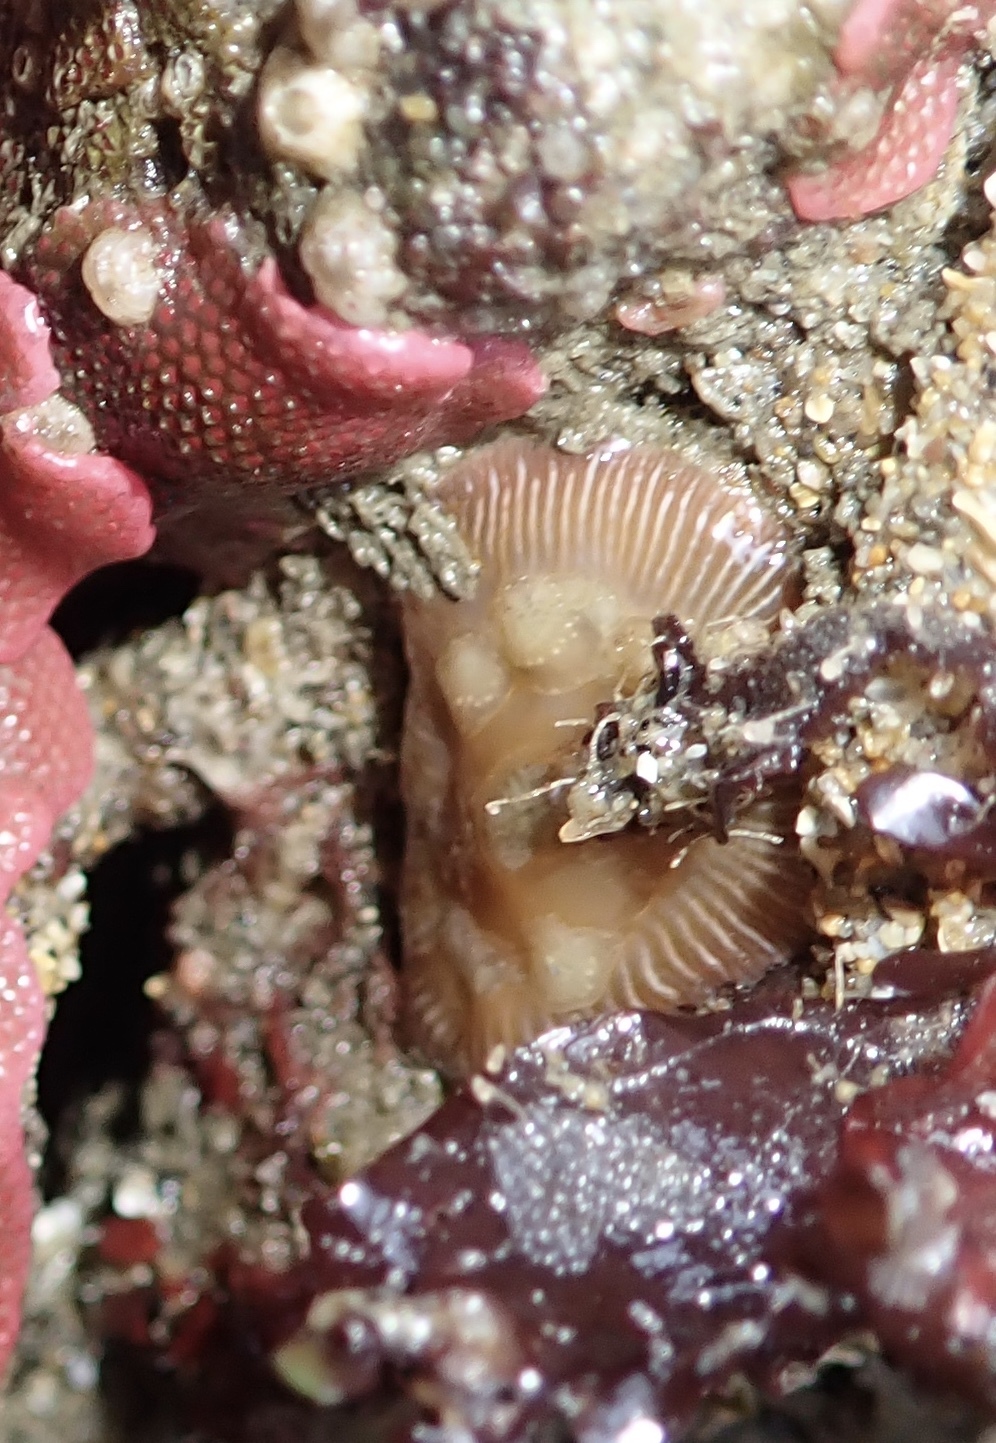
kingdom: Animalia
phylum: Cnidaria
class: Anthozoa
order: Actiniaria
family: Actiniidae
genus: Epiactis
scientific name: Epiactis prolifera
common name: Brooding anemone
